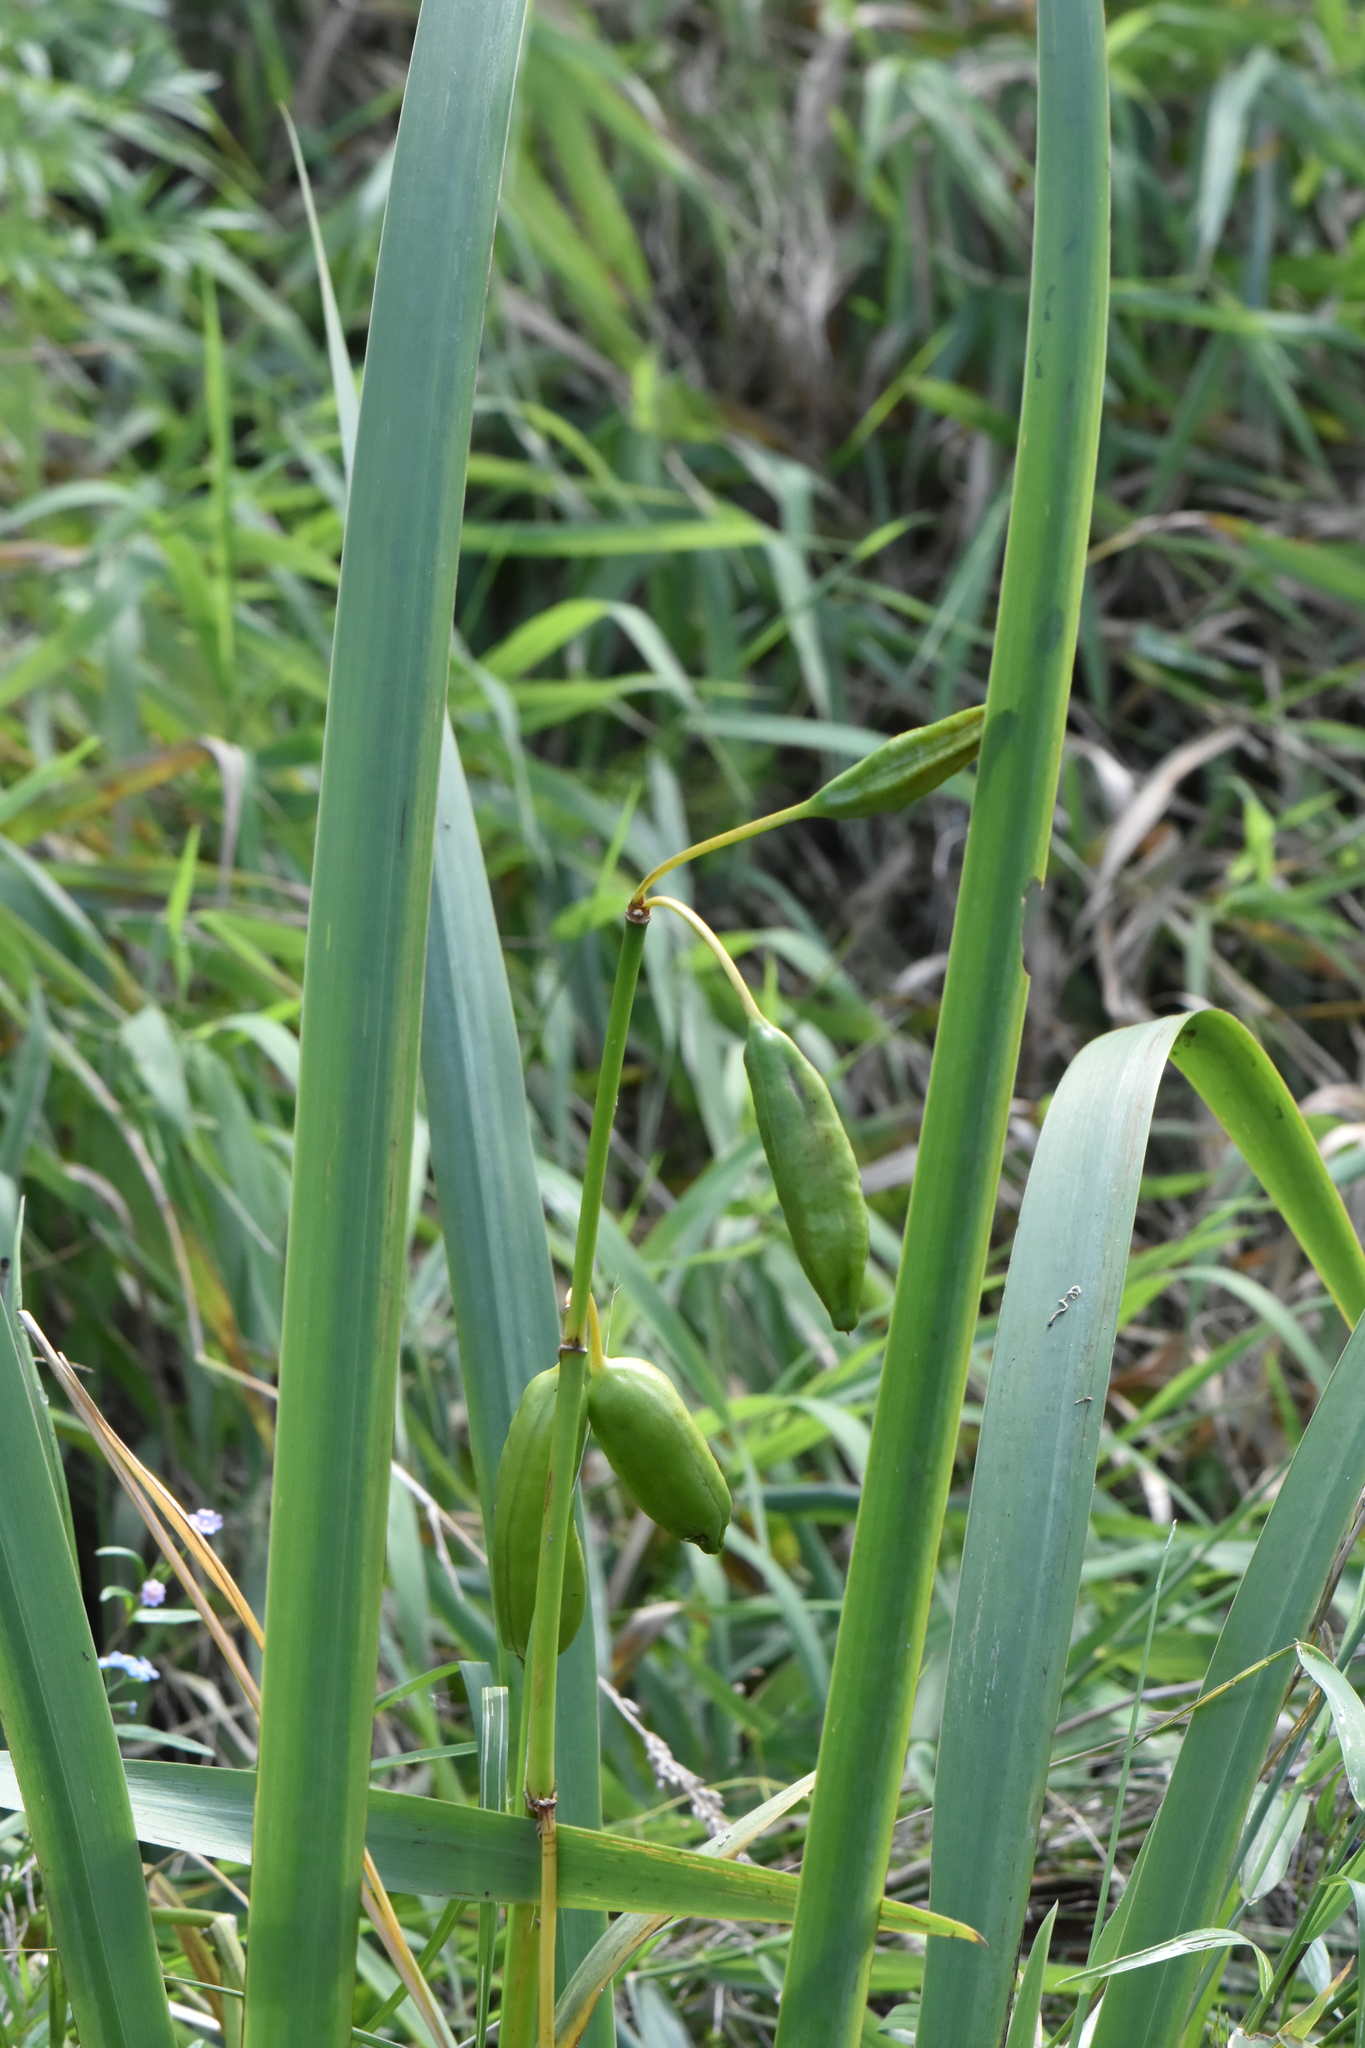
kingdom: Plantae
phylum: Tracheophyta
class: Liliopsida
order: Asparagales
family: Iridaceae
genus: Iris
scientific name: Iris pseudacorus
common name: Yellow flag
